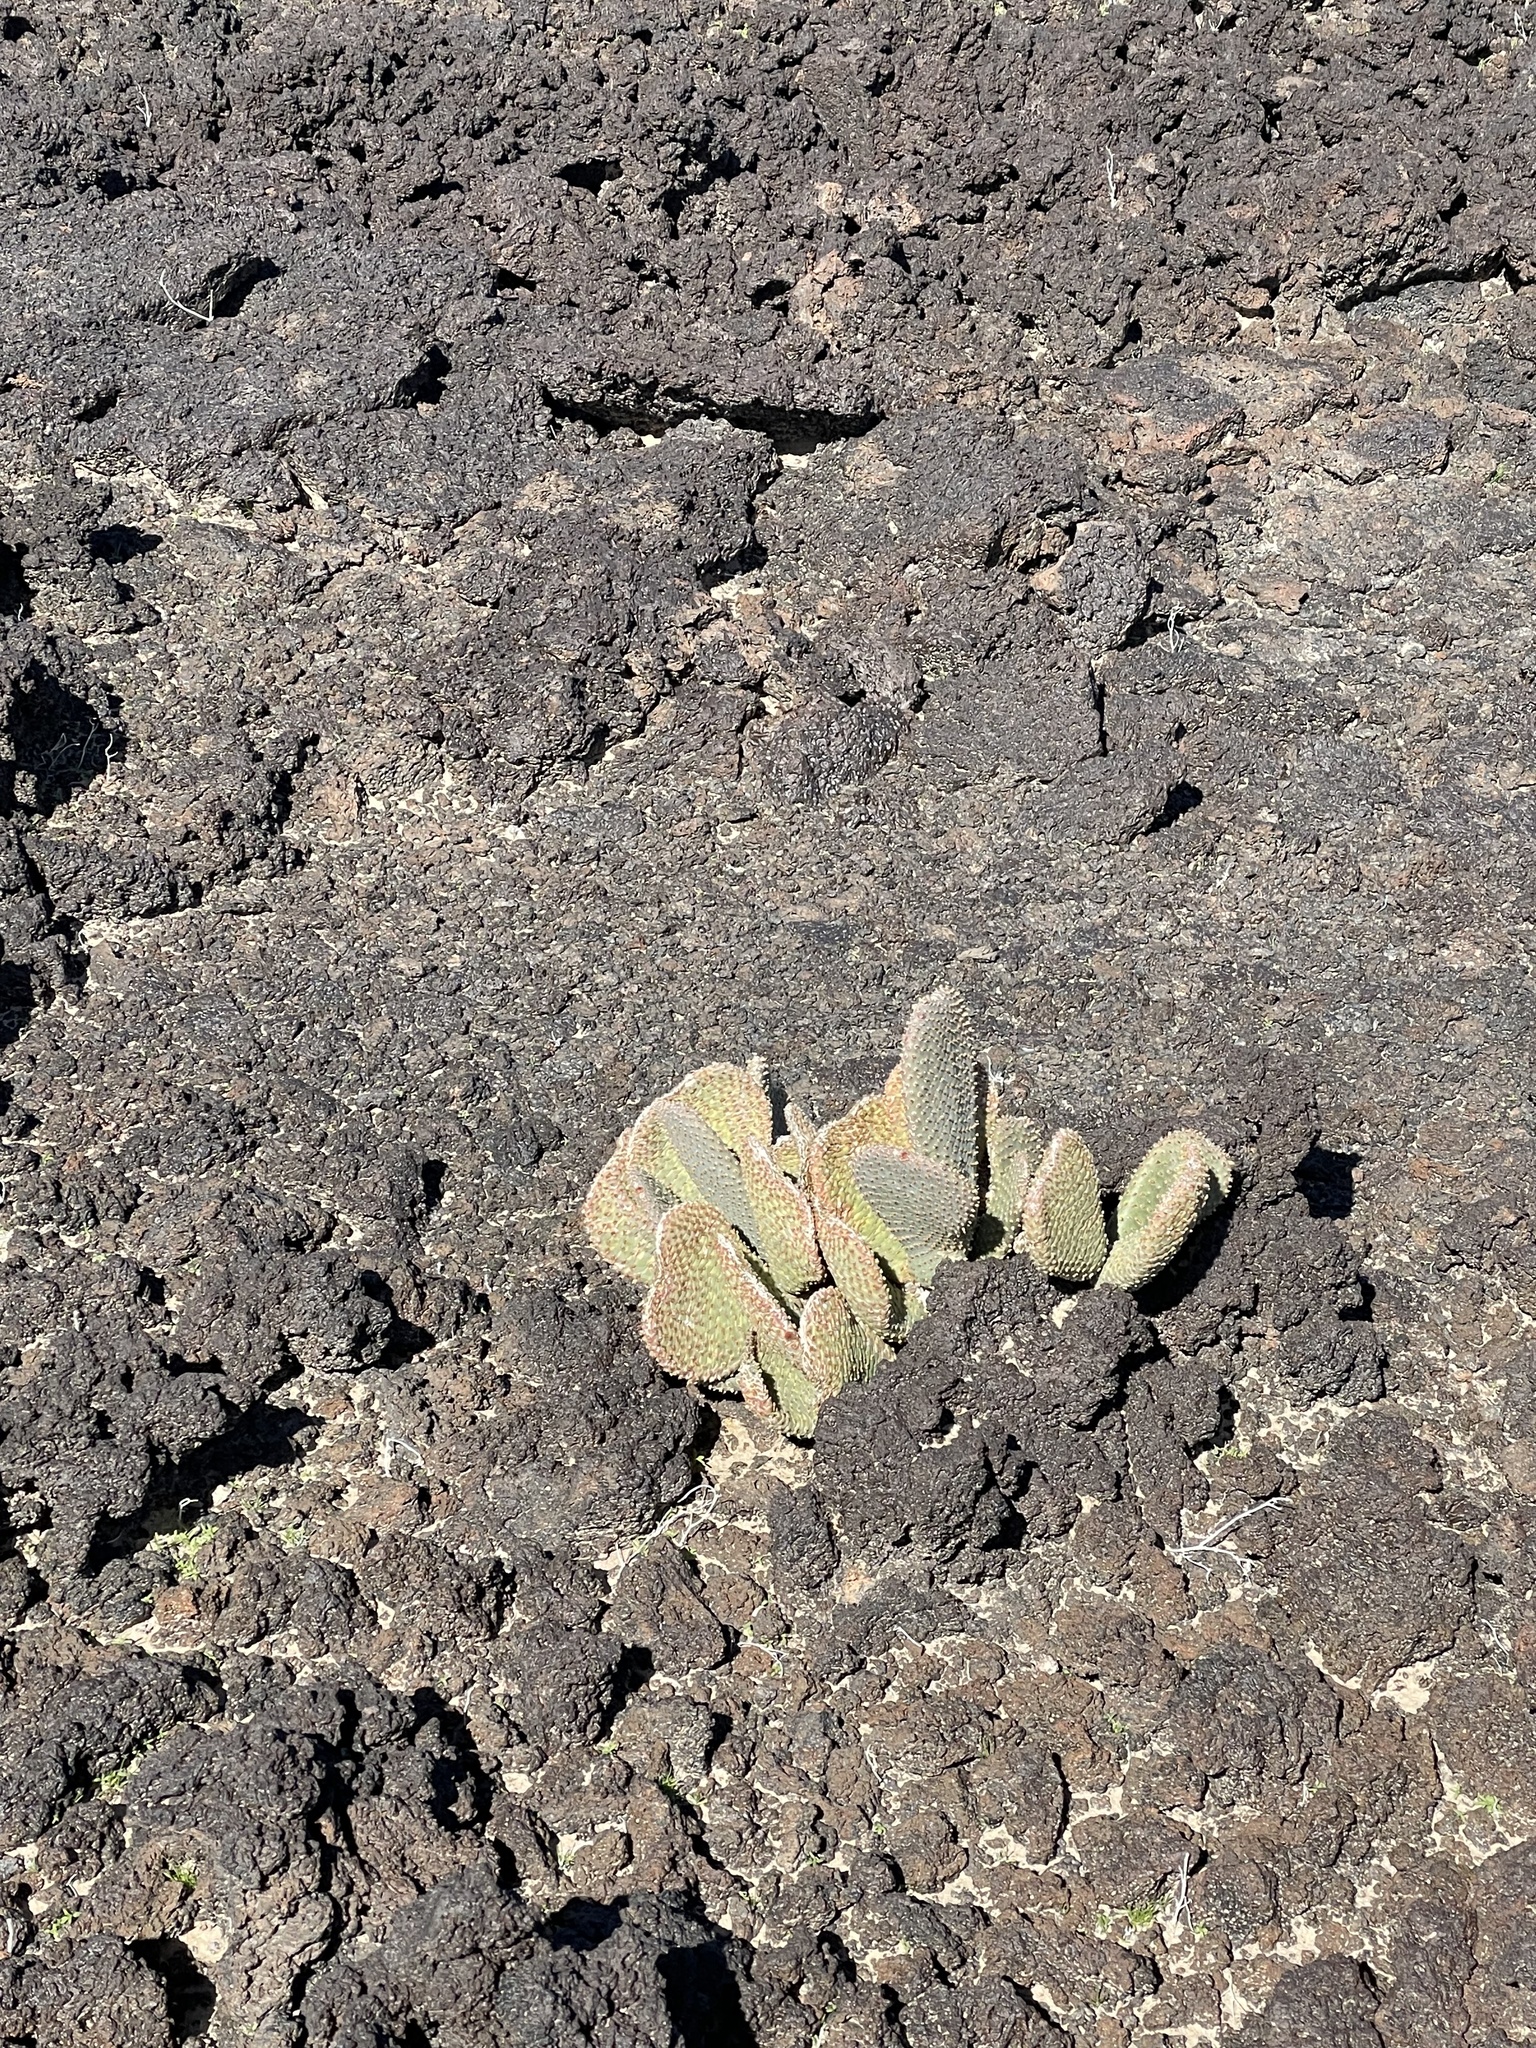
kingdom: Plantae
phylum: Tracheophyta
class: Magnoliopsida
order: Caryophyllales
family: Cactaceae
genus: Opuntia
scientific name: Opuntia basilaris
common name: Beavertail prickly-pear
